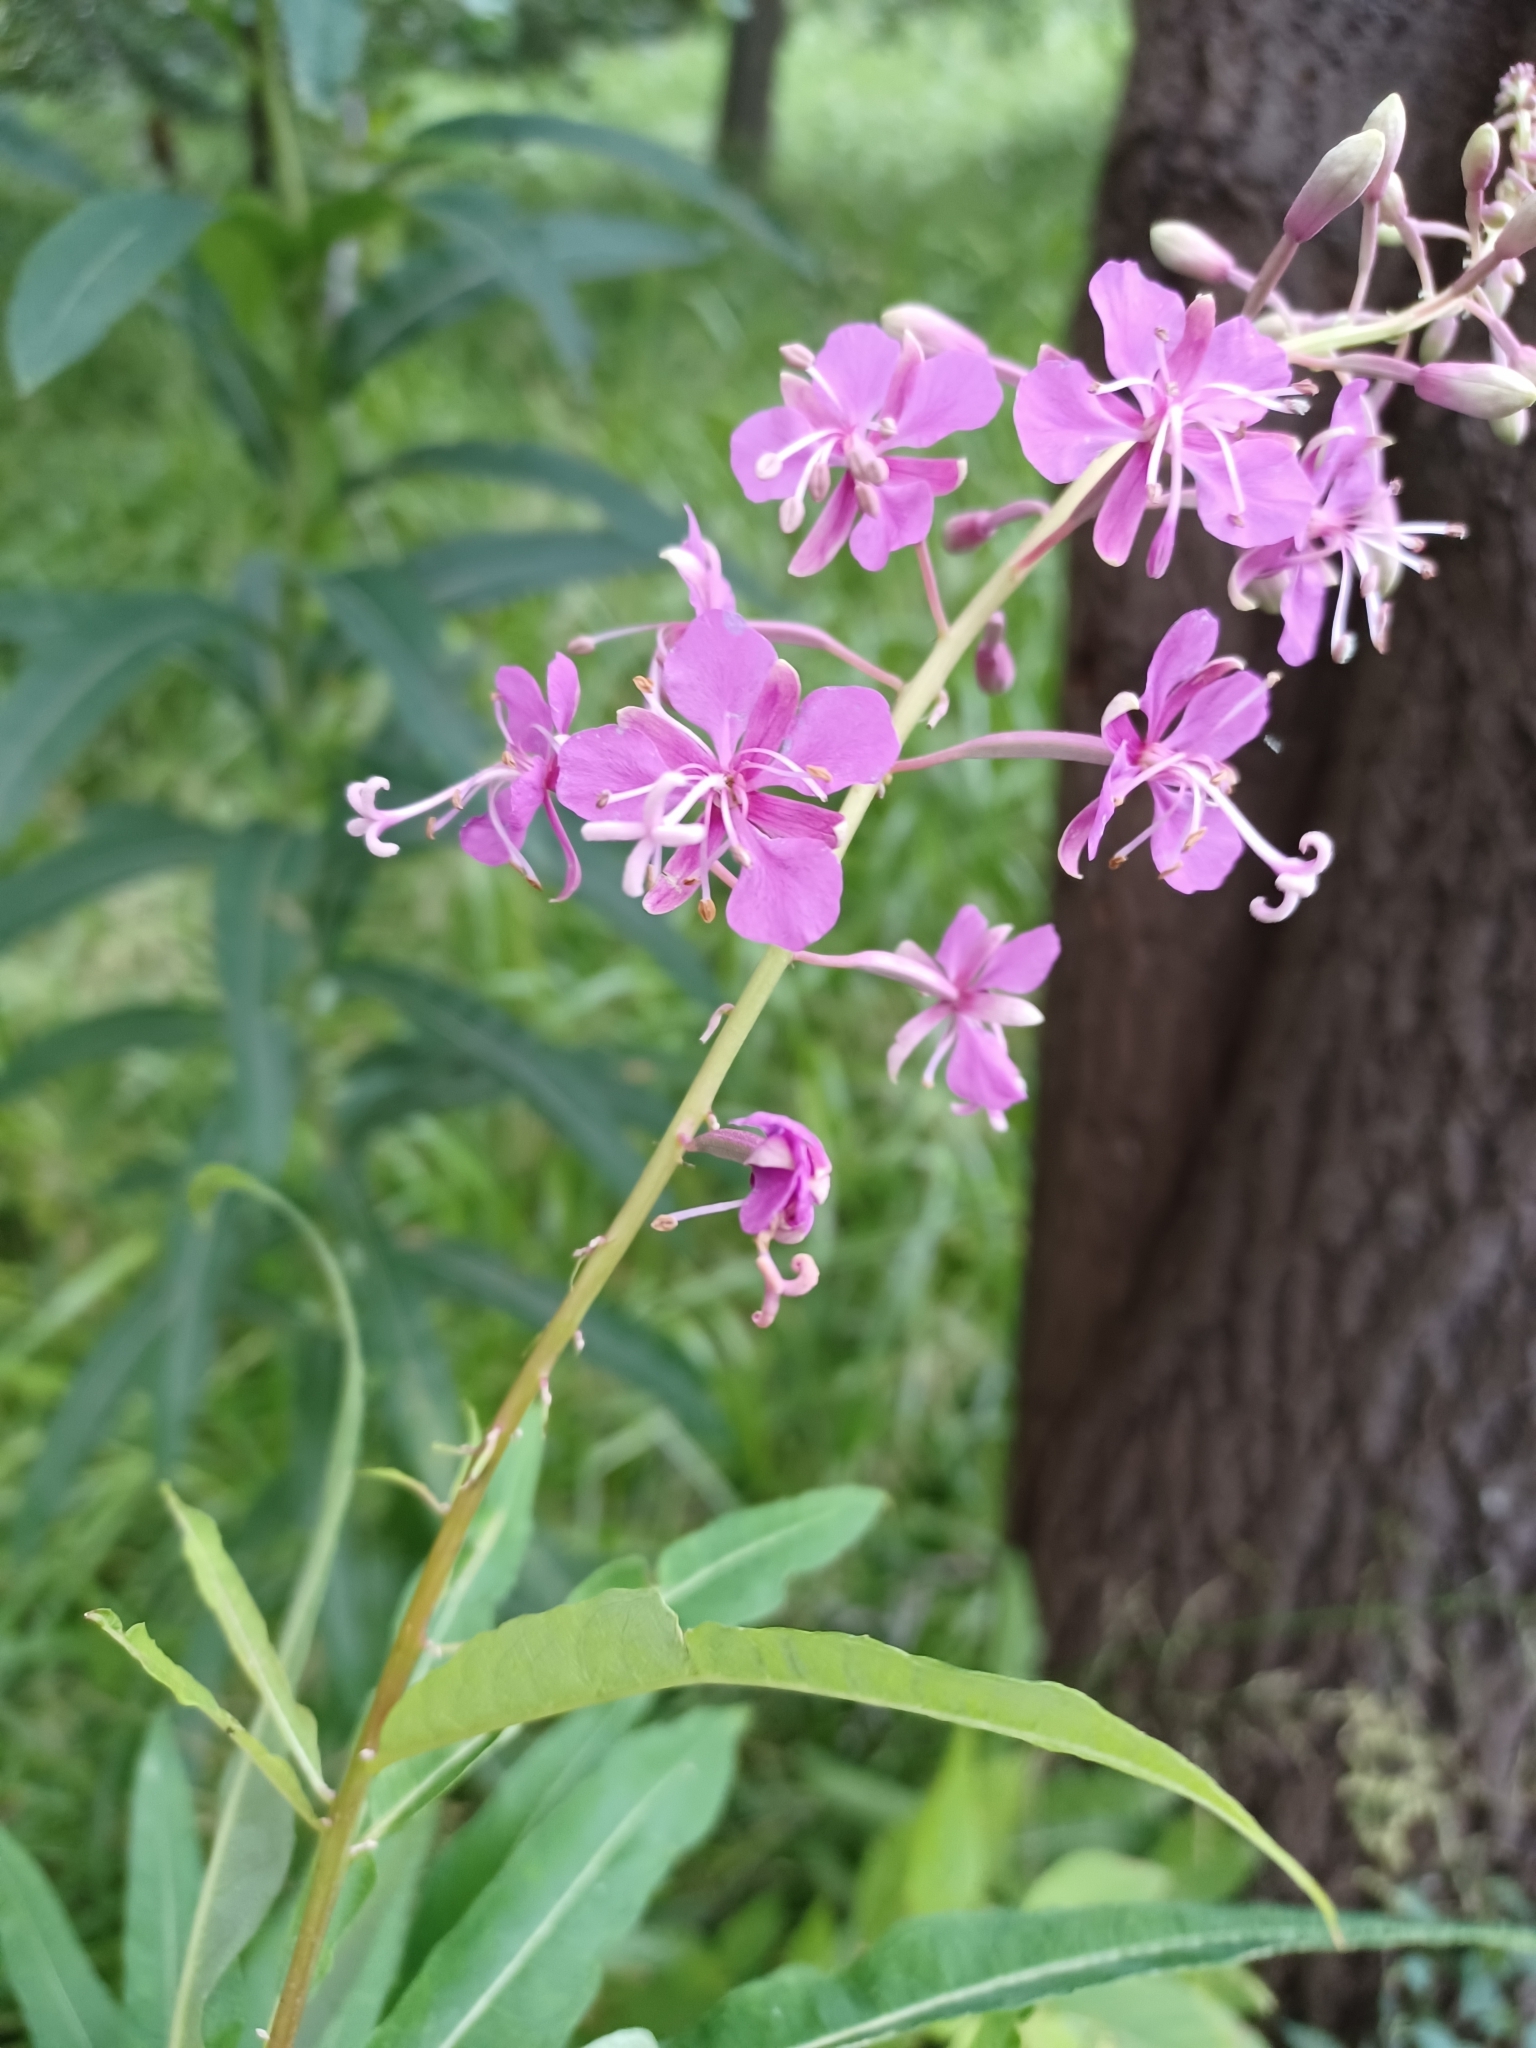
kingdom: Plantae
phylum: Tracheophyta
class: Magnoliopsida
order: Myrtales
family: Onagraceae
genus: Chamaenerion
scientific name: Chamaenerion angustifolium
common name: Fireweed
